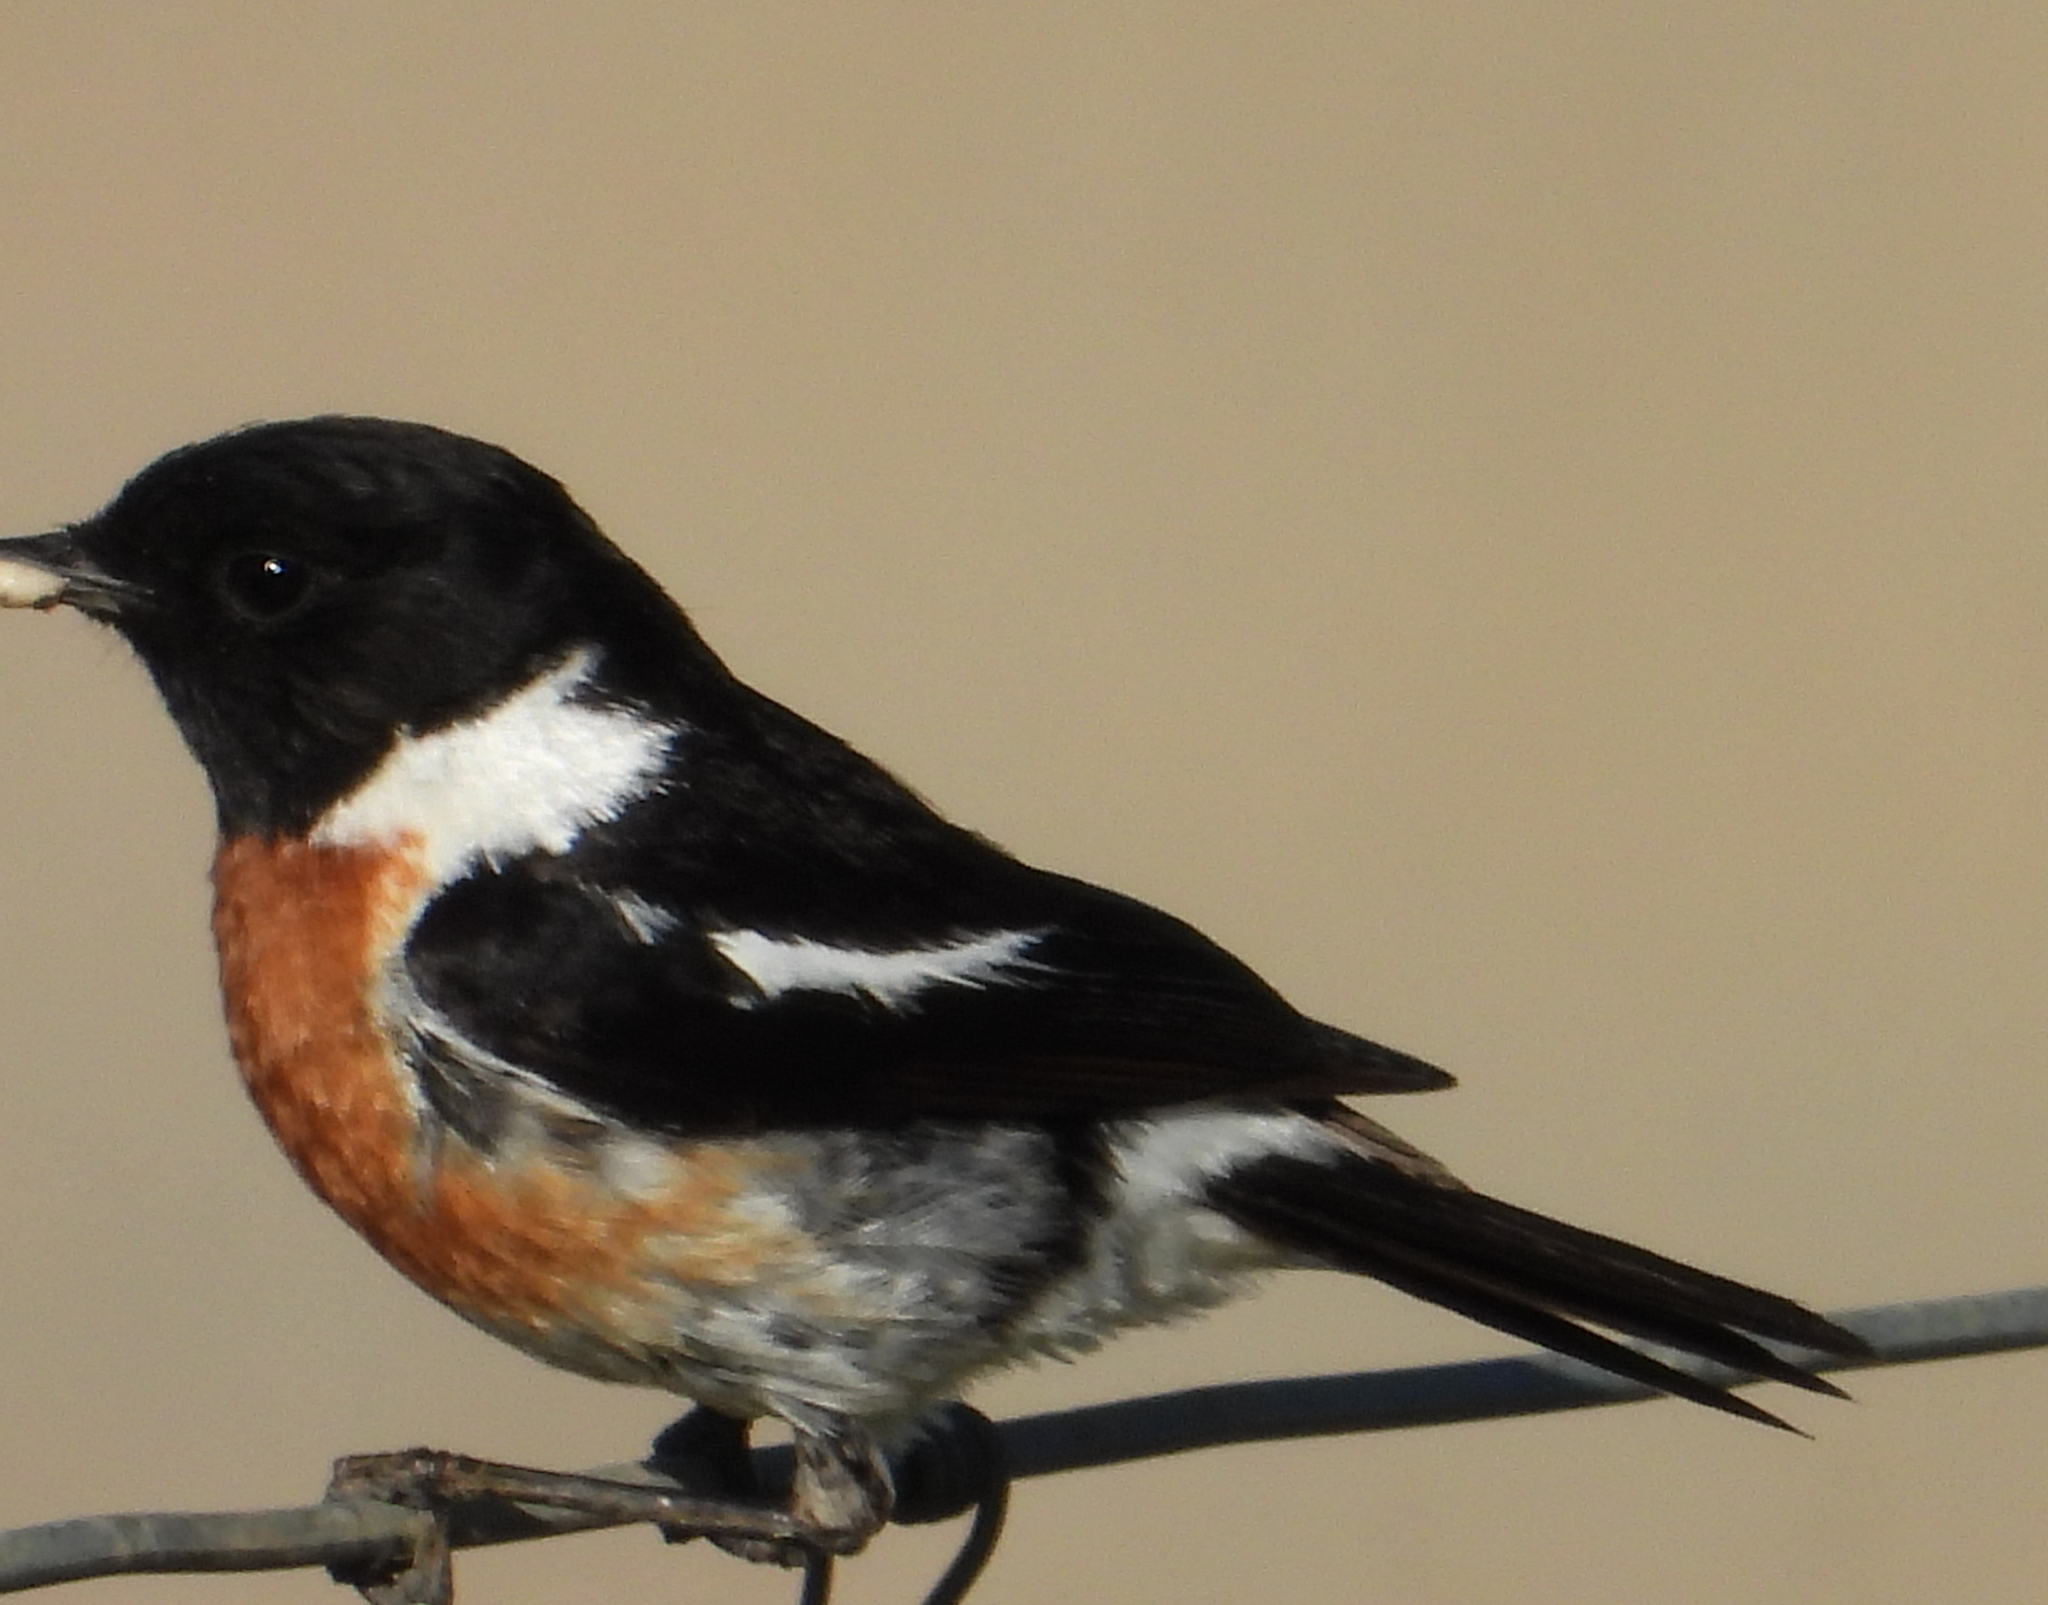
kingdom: Animalia
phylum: Chordata
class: Aves
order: Passeriformes
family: Muscicapidae
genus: Saxicola
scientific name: Saxicola torquatus
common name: African stonechat
